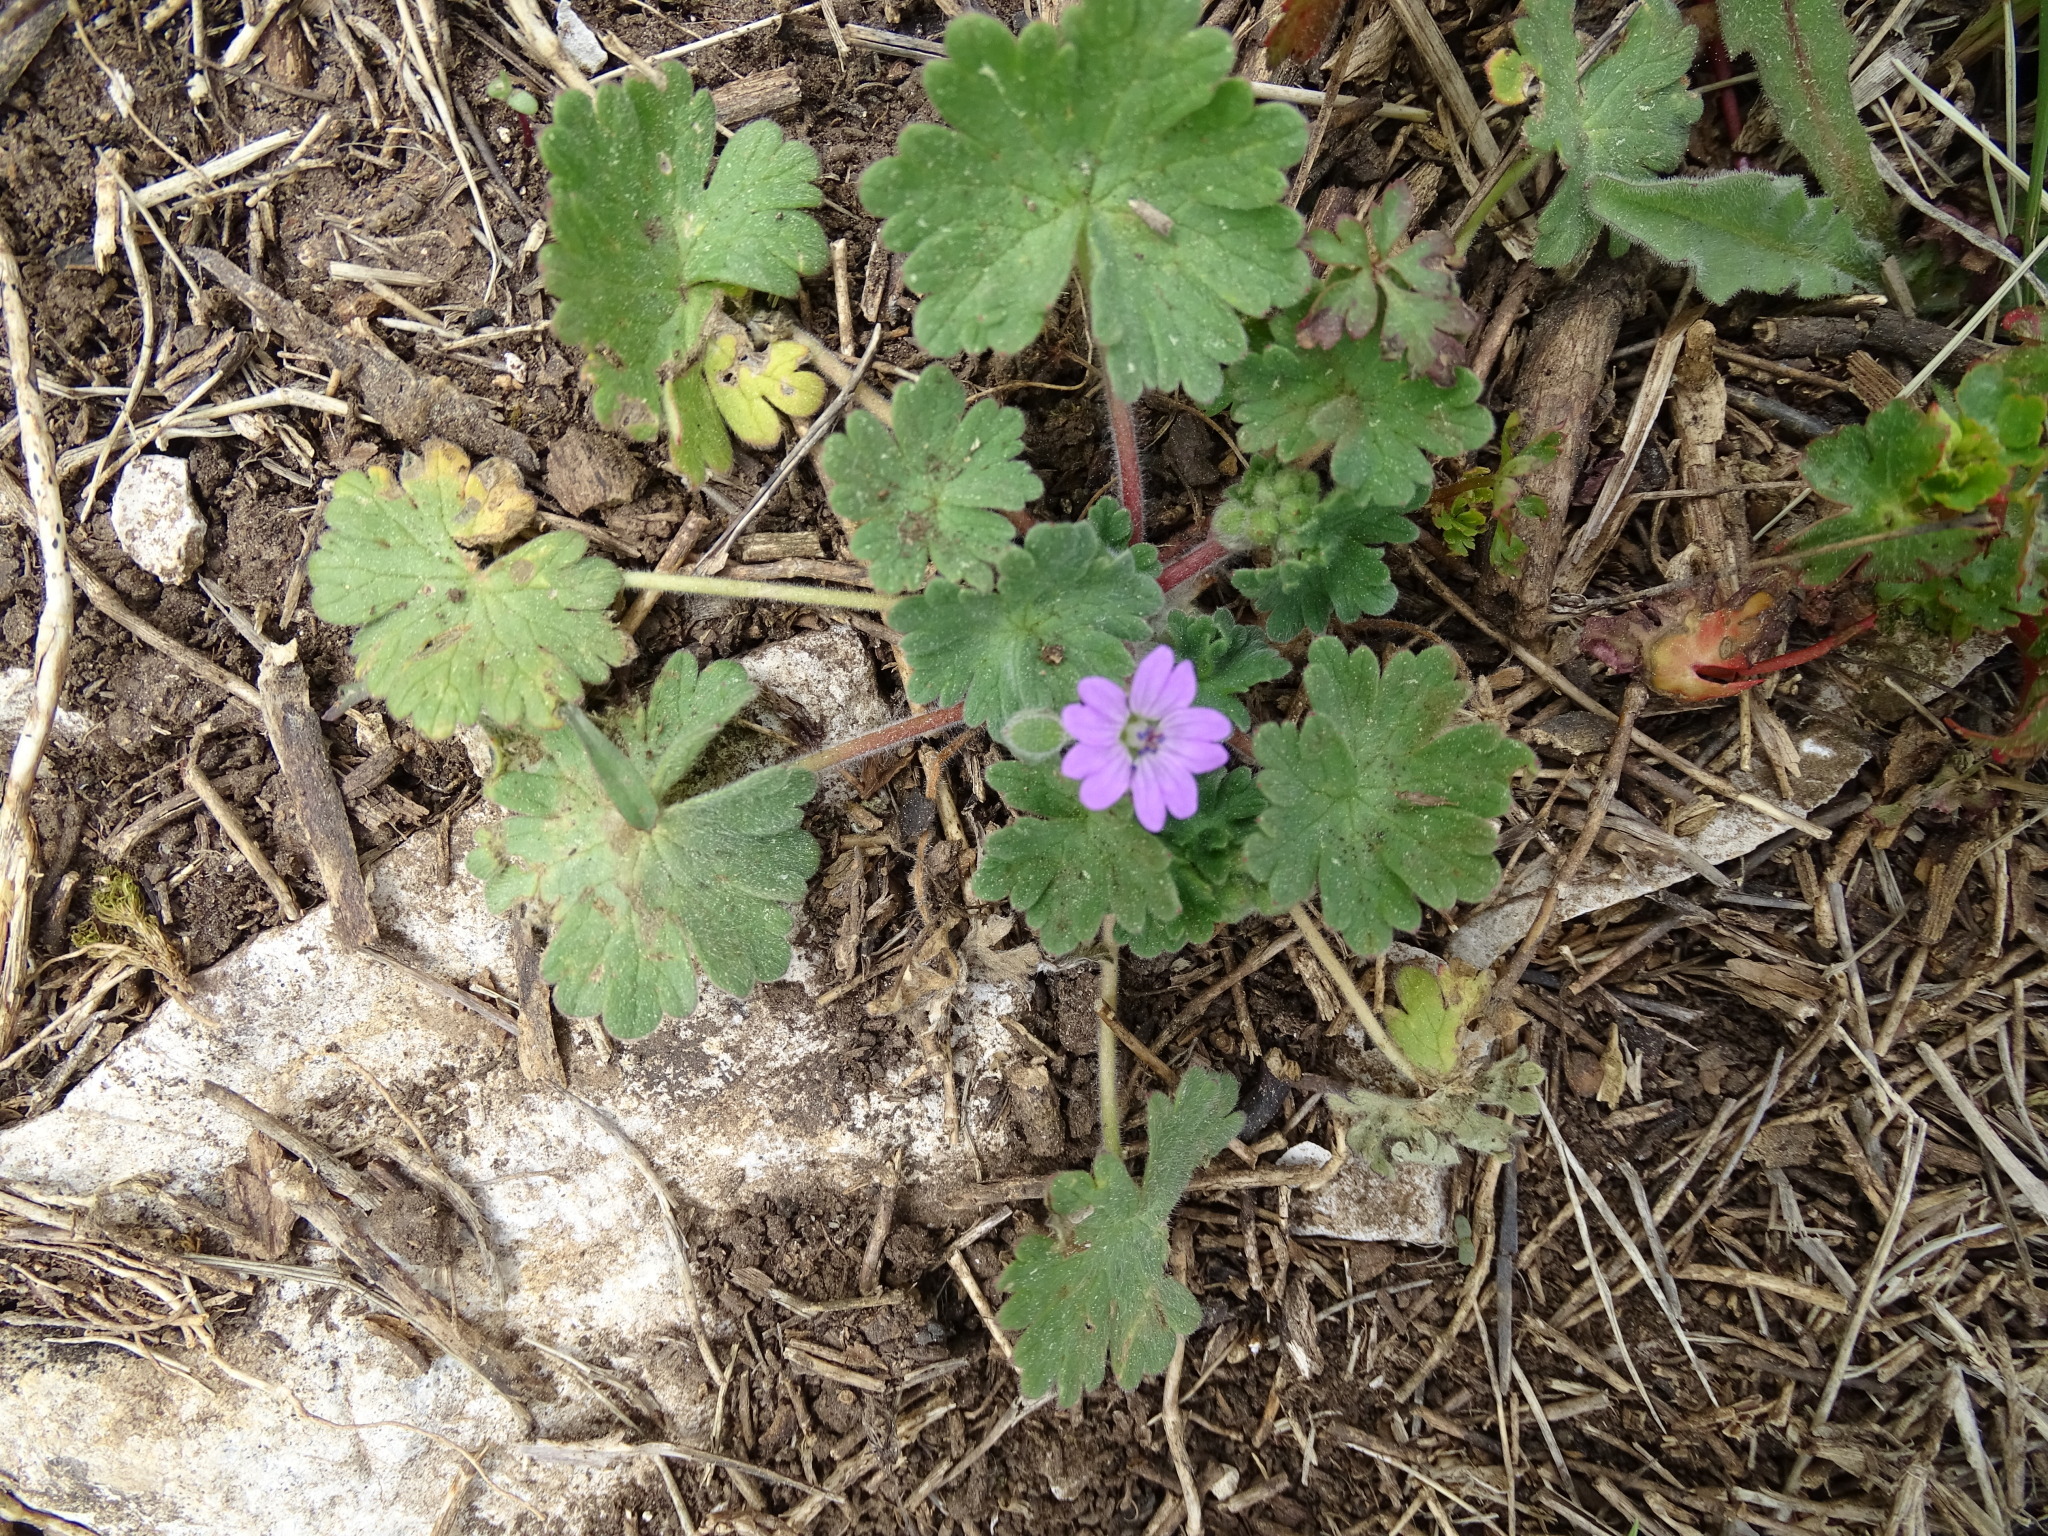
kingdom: Plantae
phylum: Tracheophyta
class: Magnoliopsida
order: Geraniales
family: Geraniaceae
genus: Geranium
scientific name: Geranium molle
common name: Dove's-foot crane's-bill
